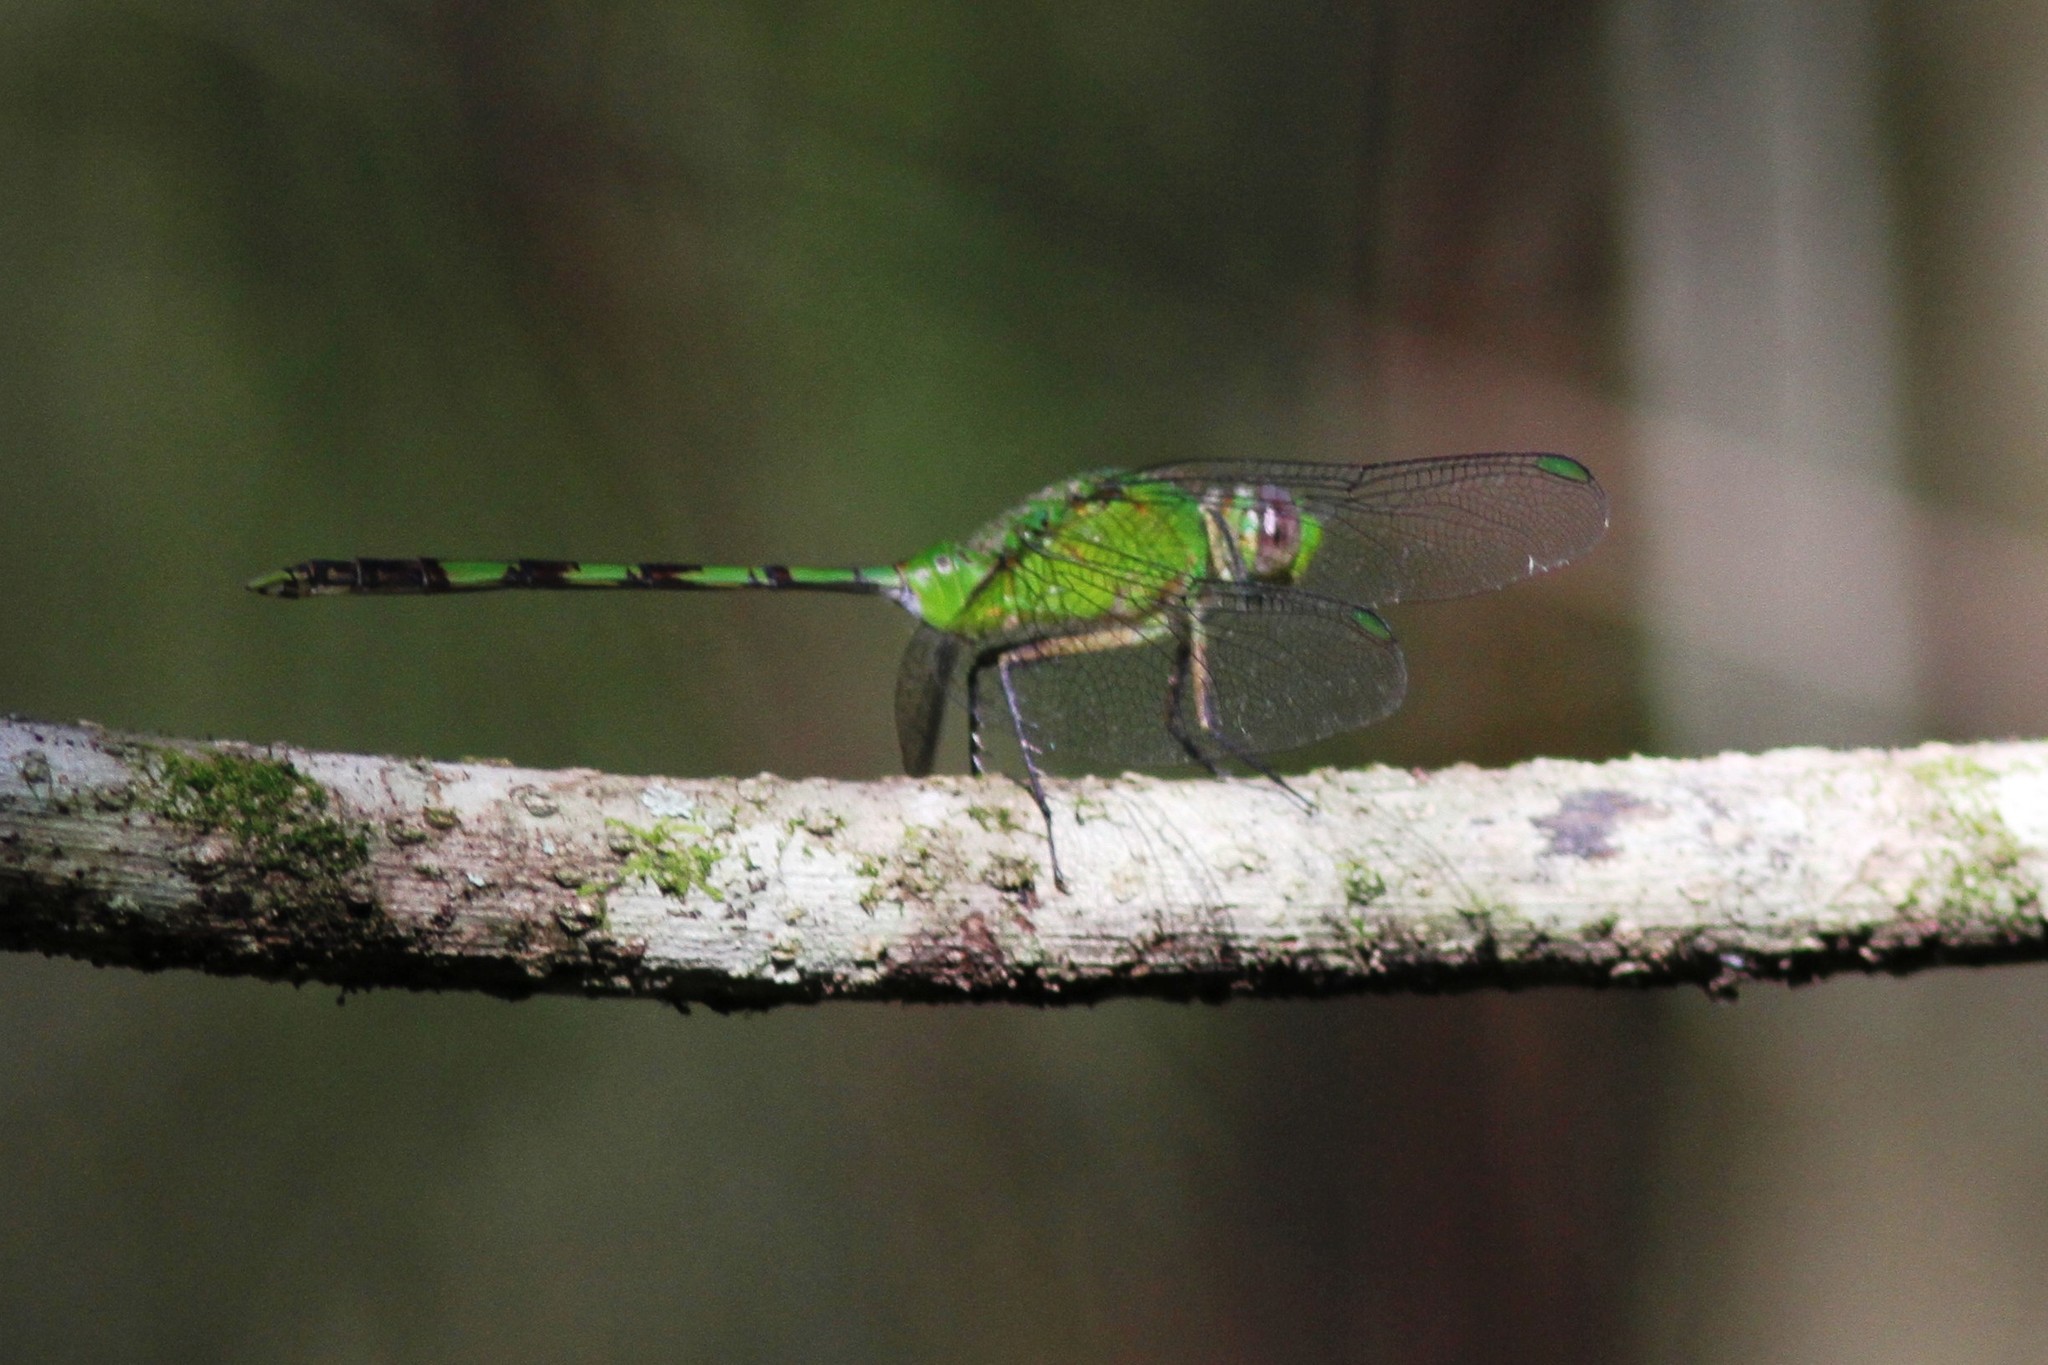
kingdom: Animalia
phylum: Arthropoda
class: Insecta
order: Odonata
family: Libellulidae
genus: Erythemis
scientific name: Erythemis vesiculosa
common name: Great pondhawk
